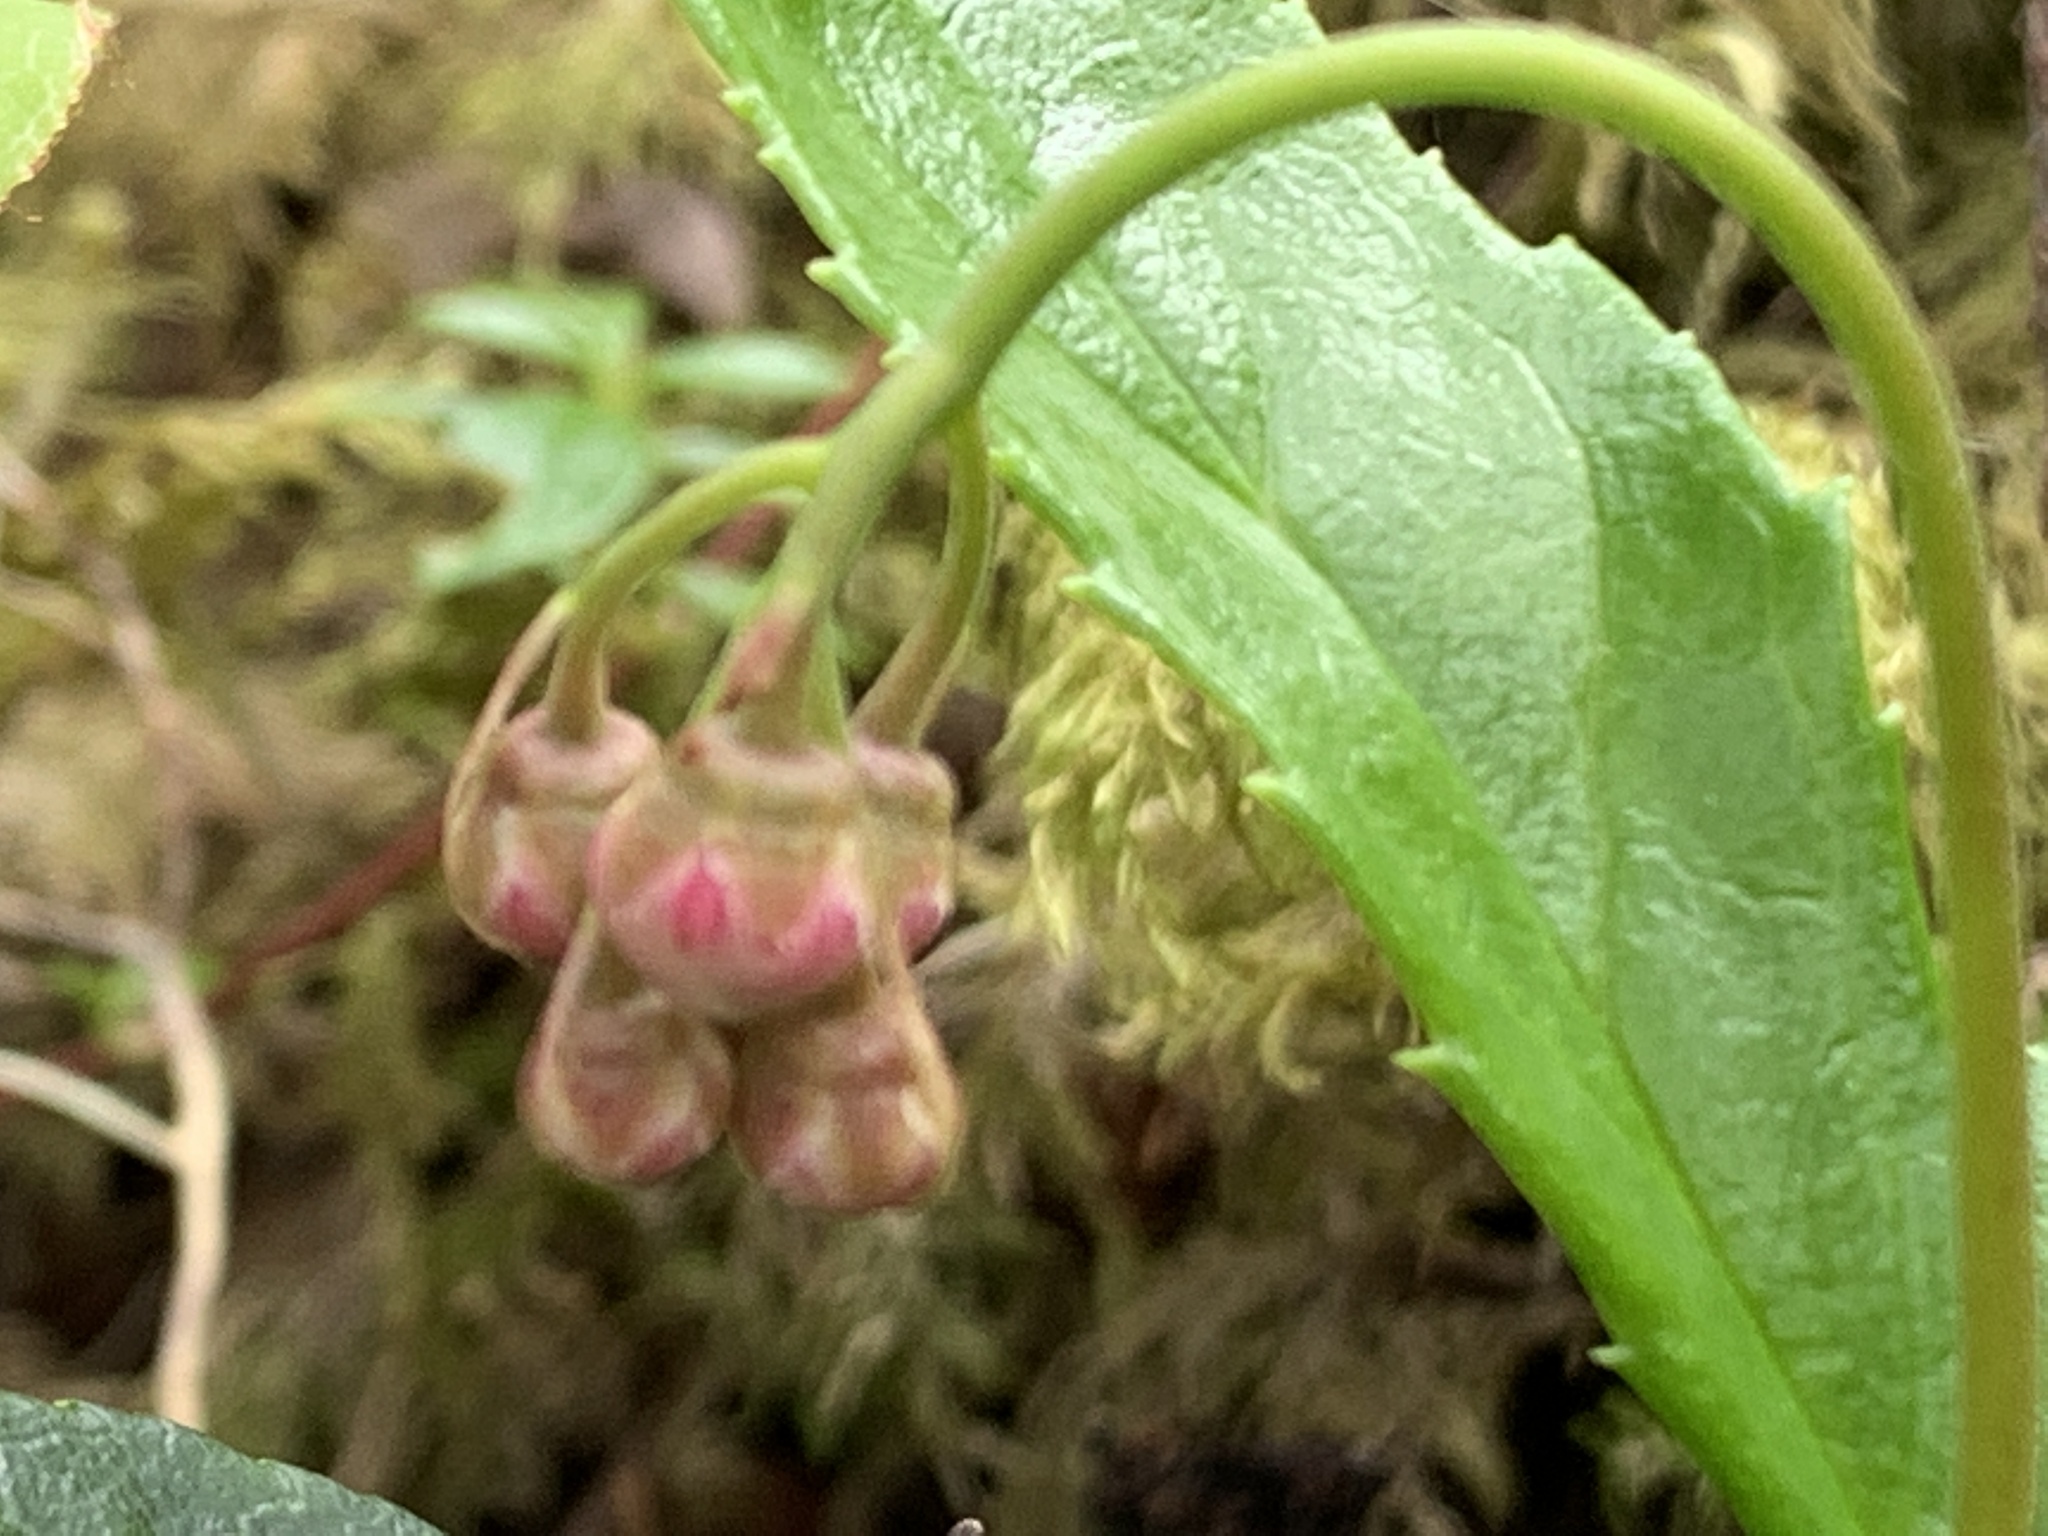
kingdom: Plantae
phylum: Tracheophyta
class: Magnoliopsida
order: Ericales
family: Ericaceae
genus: Chimaphila
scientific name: Chimaphila umbellata
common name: Pipsissewa
